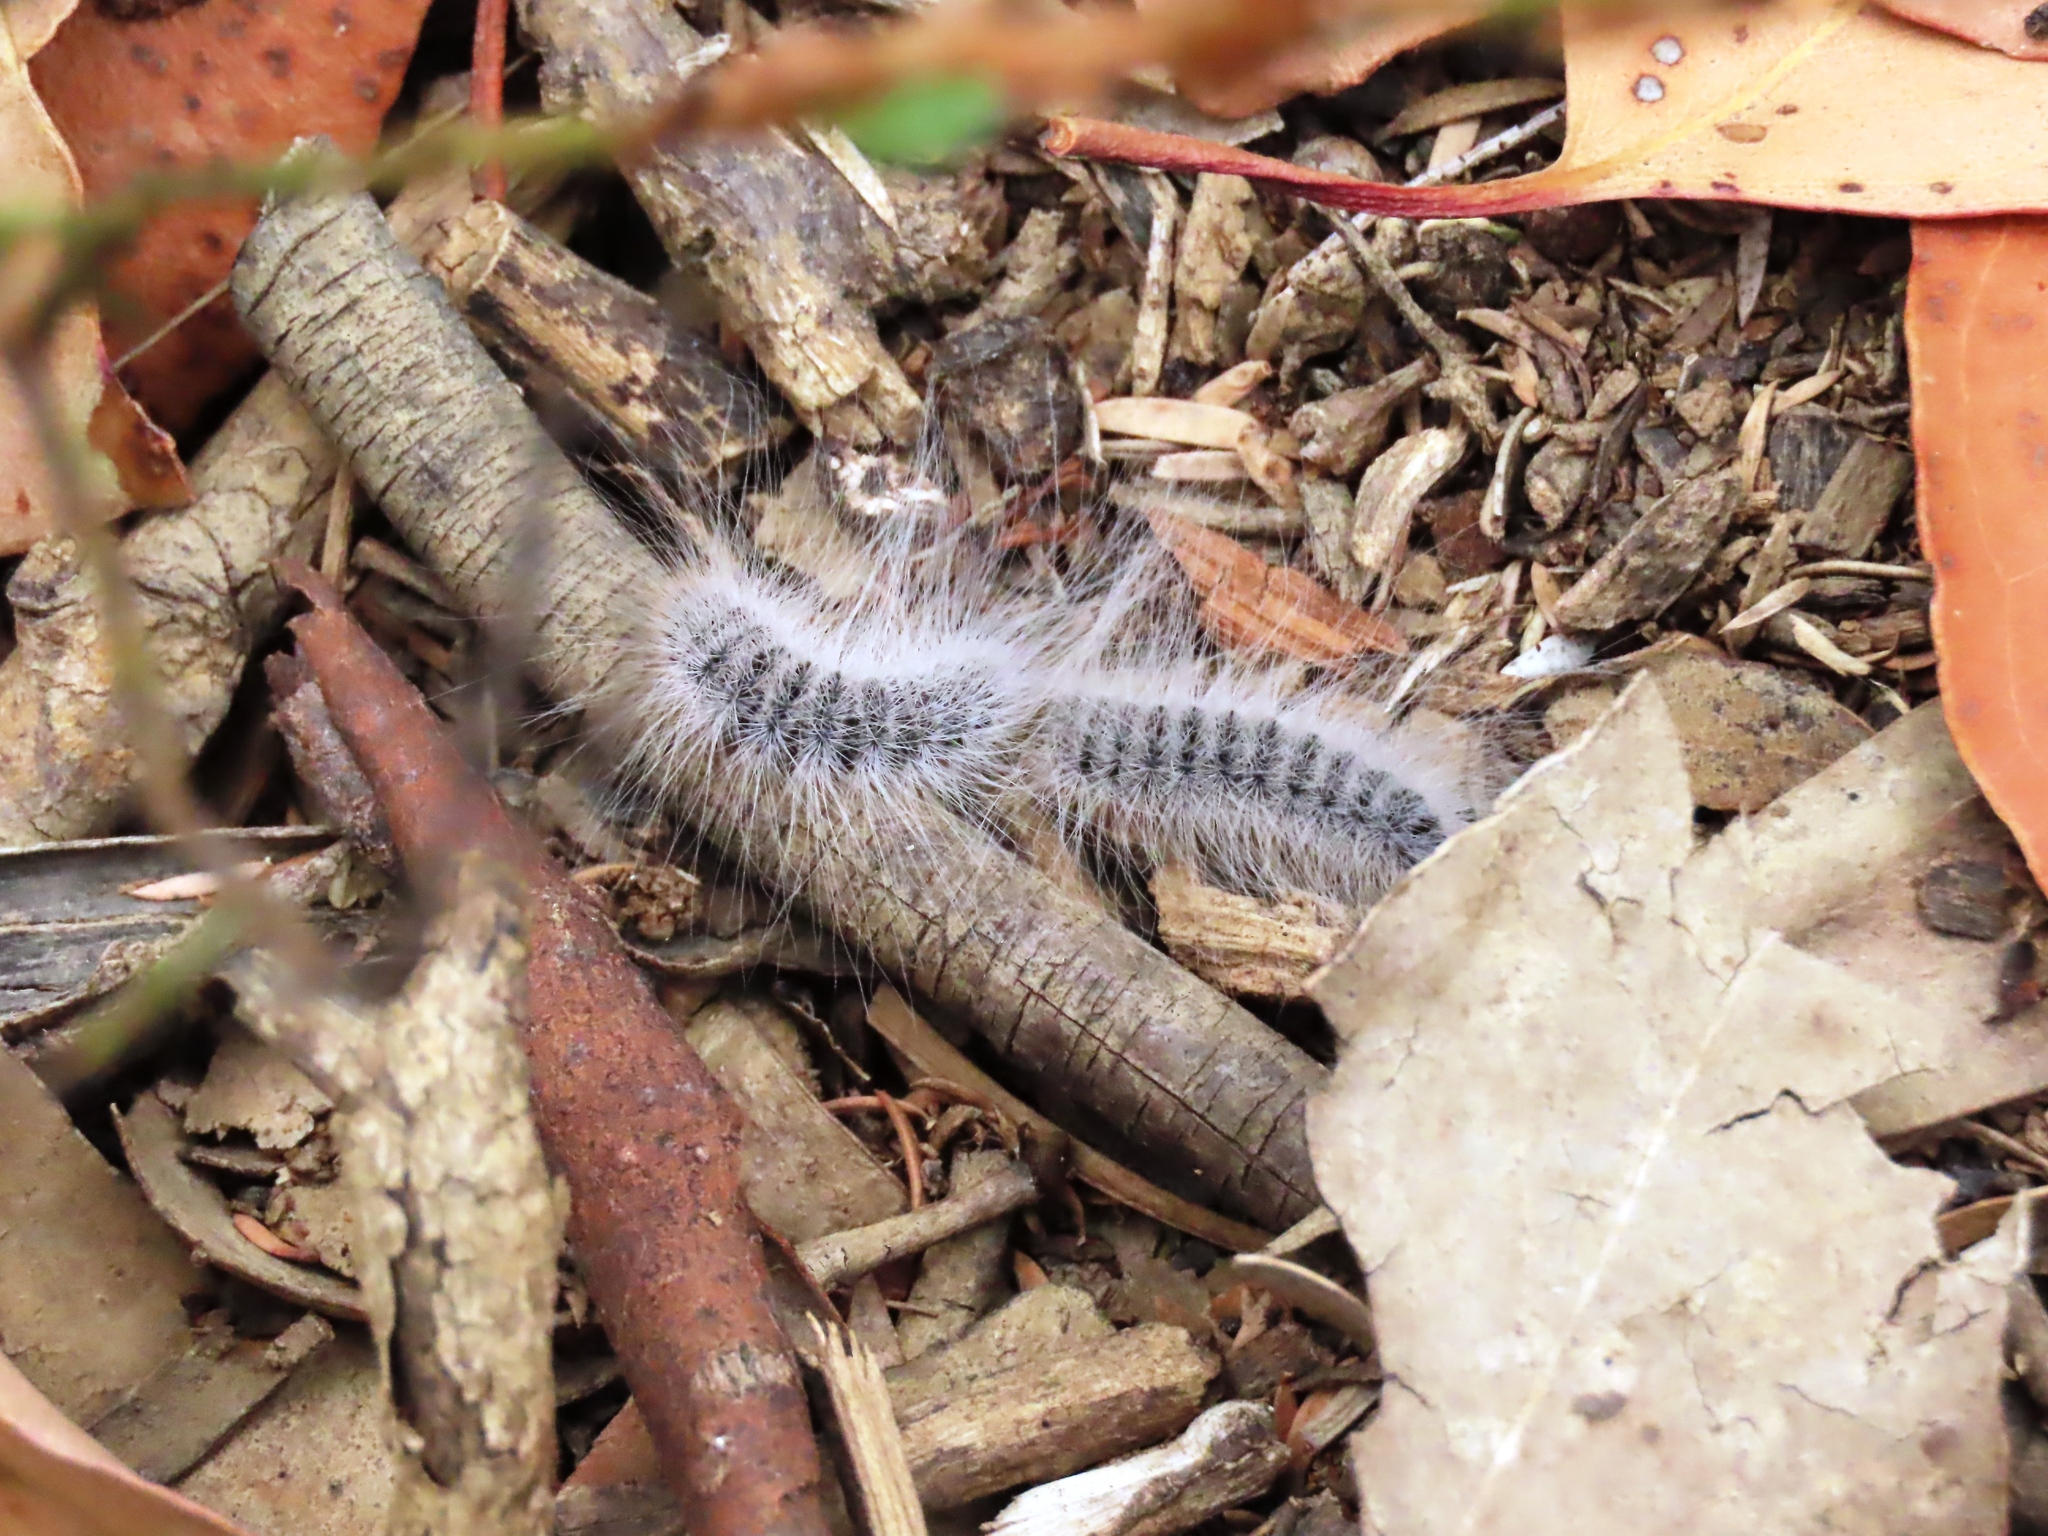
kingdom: Animalia
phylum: Arthropoda
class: Insecta
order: Lepidoptera
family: Notodontidae
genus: Ochrogaster
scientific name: Ochrogaster lunifer
